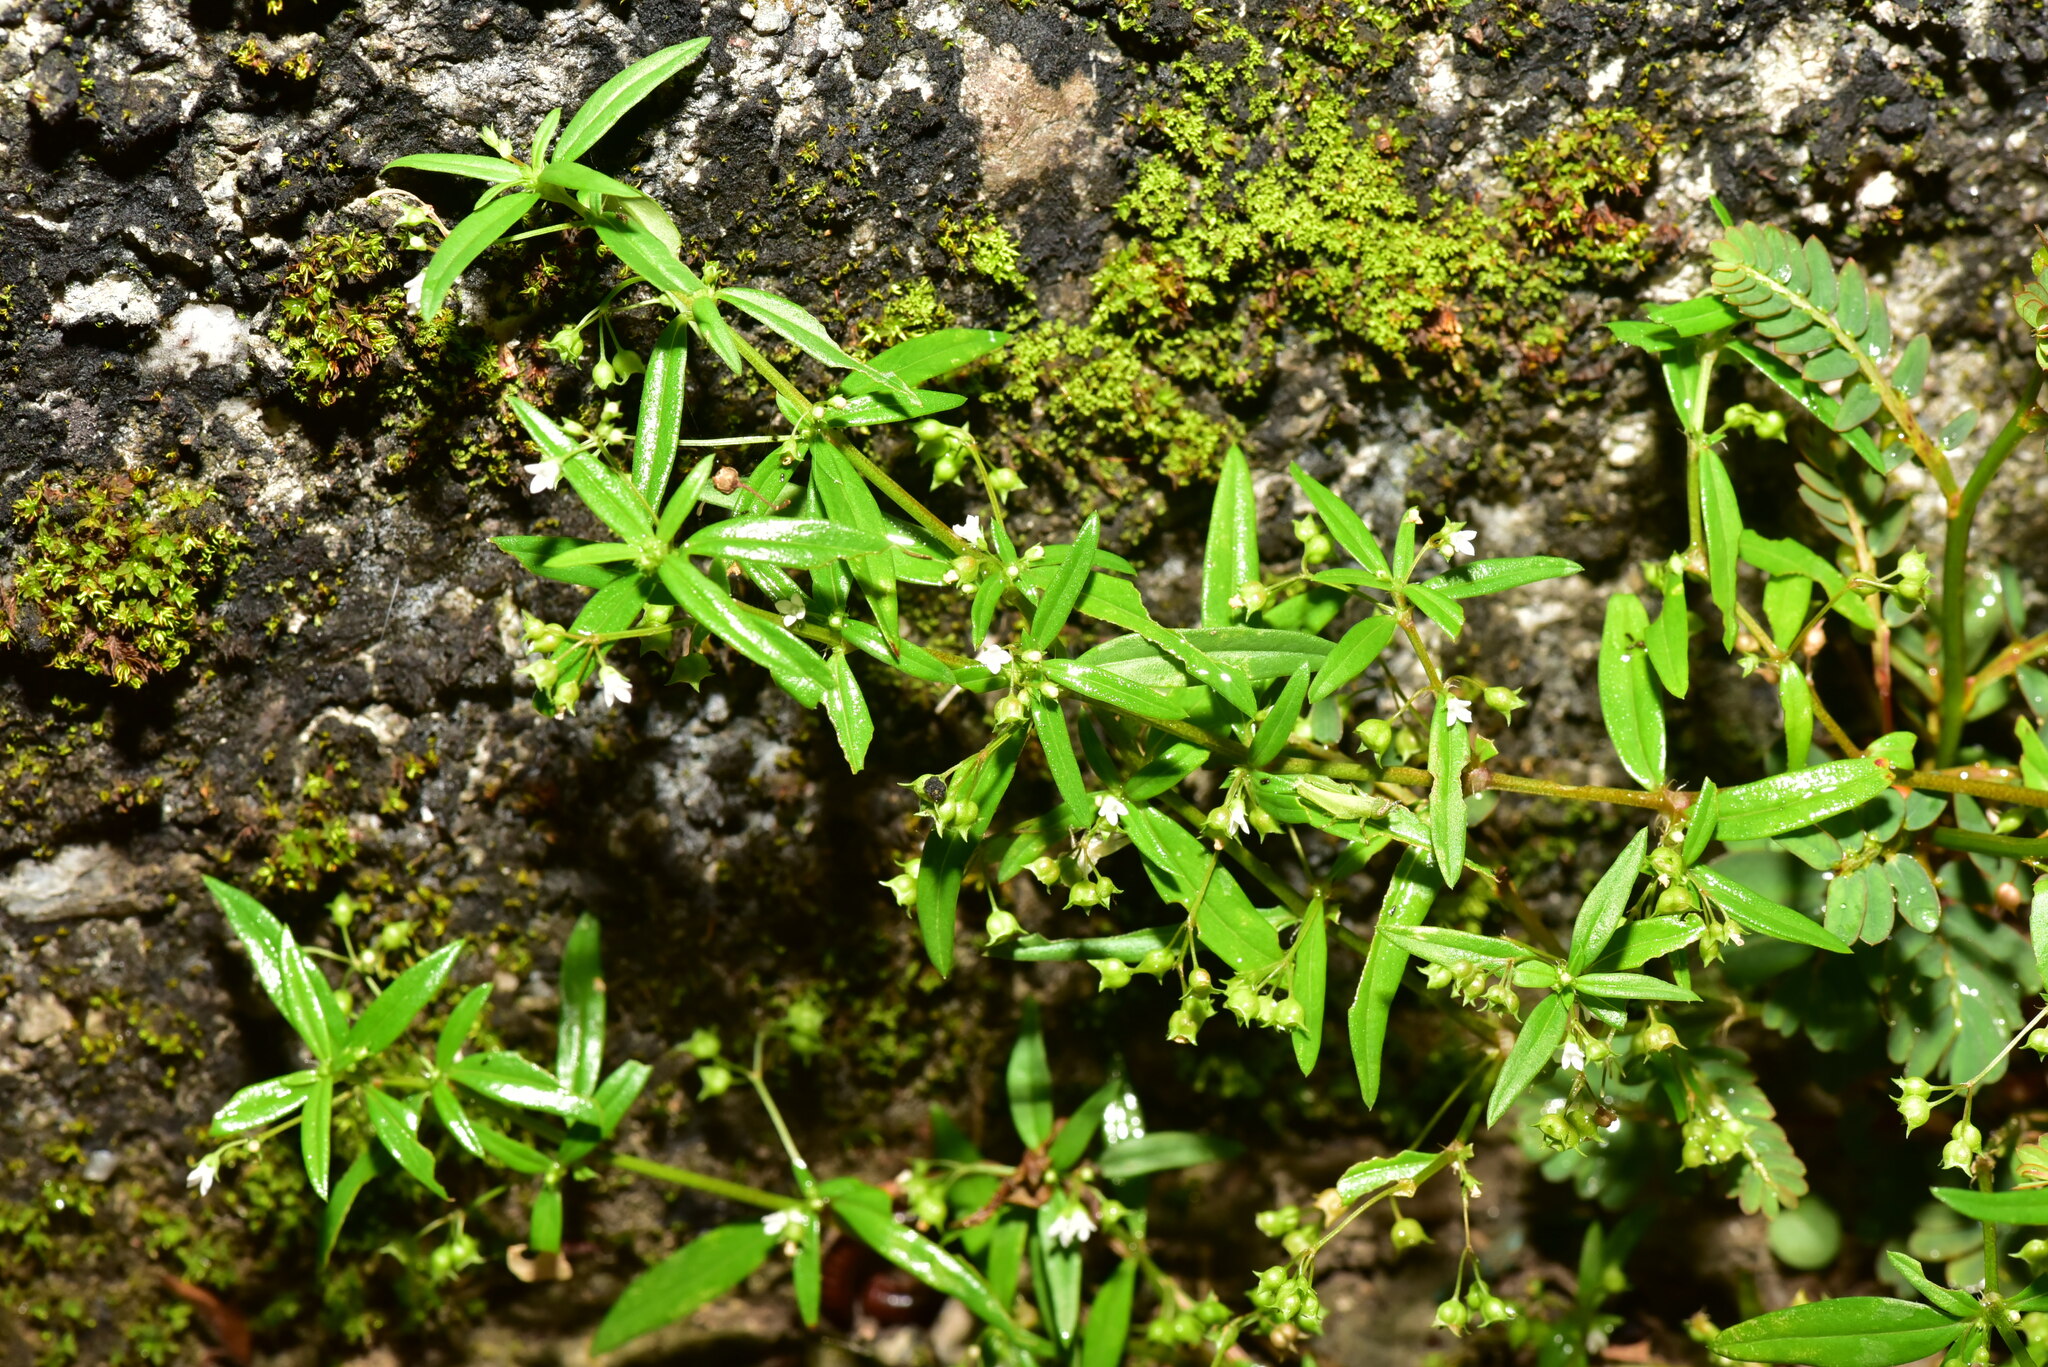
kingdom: Plantae
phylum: Tracheophyta
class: Magnoliopsida
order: Gentianales
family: Rubiaceae
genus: Oldenlandia
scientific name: Oldenlandia corymbosa
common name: Flat-top mille graines
